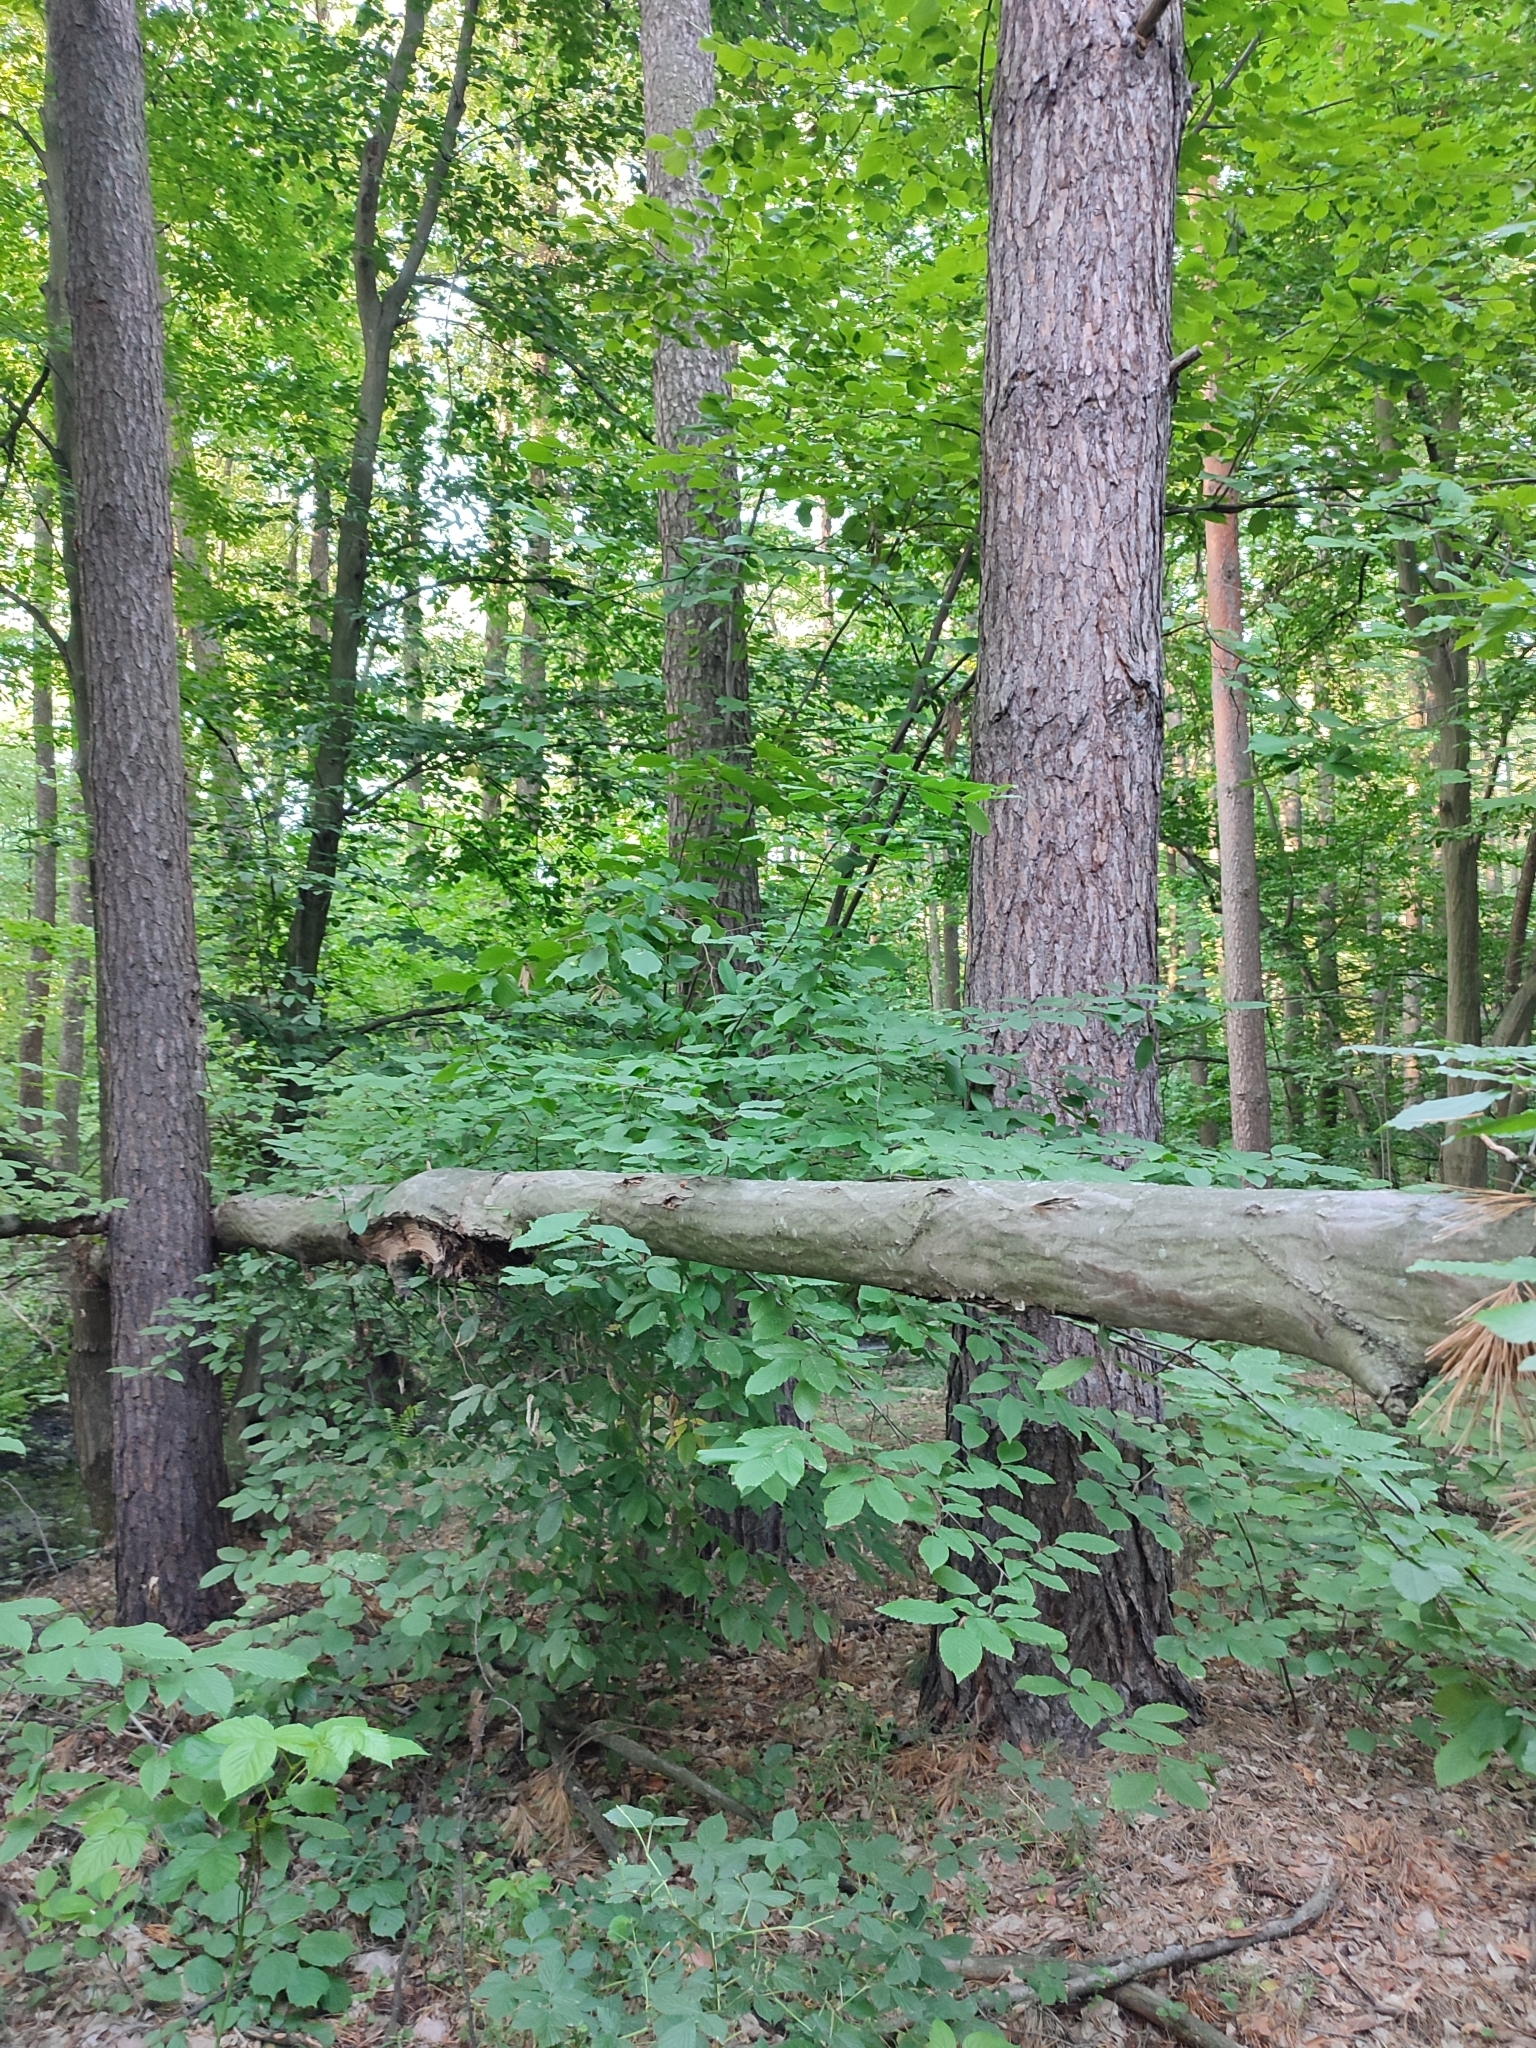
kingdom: Plantae
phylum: Tracheophyta
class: Magnoliopsida
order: Fagales
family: Betulaceae
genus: Carpinus
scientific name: Carpinus betulus
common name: Hornbeam
